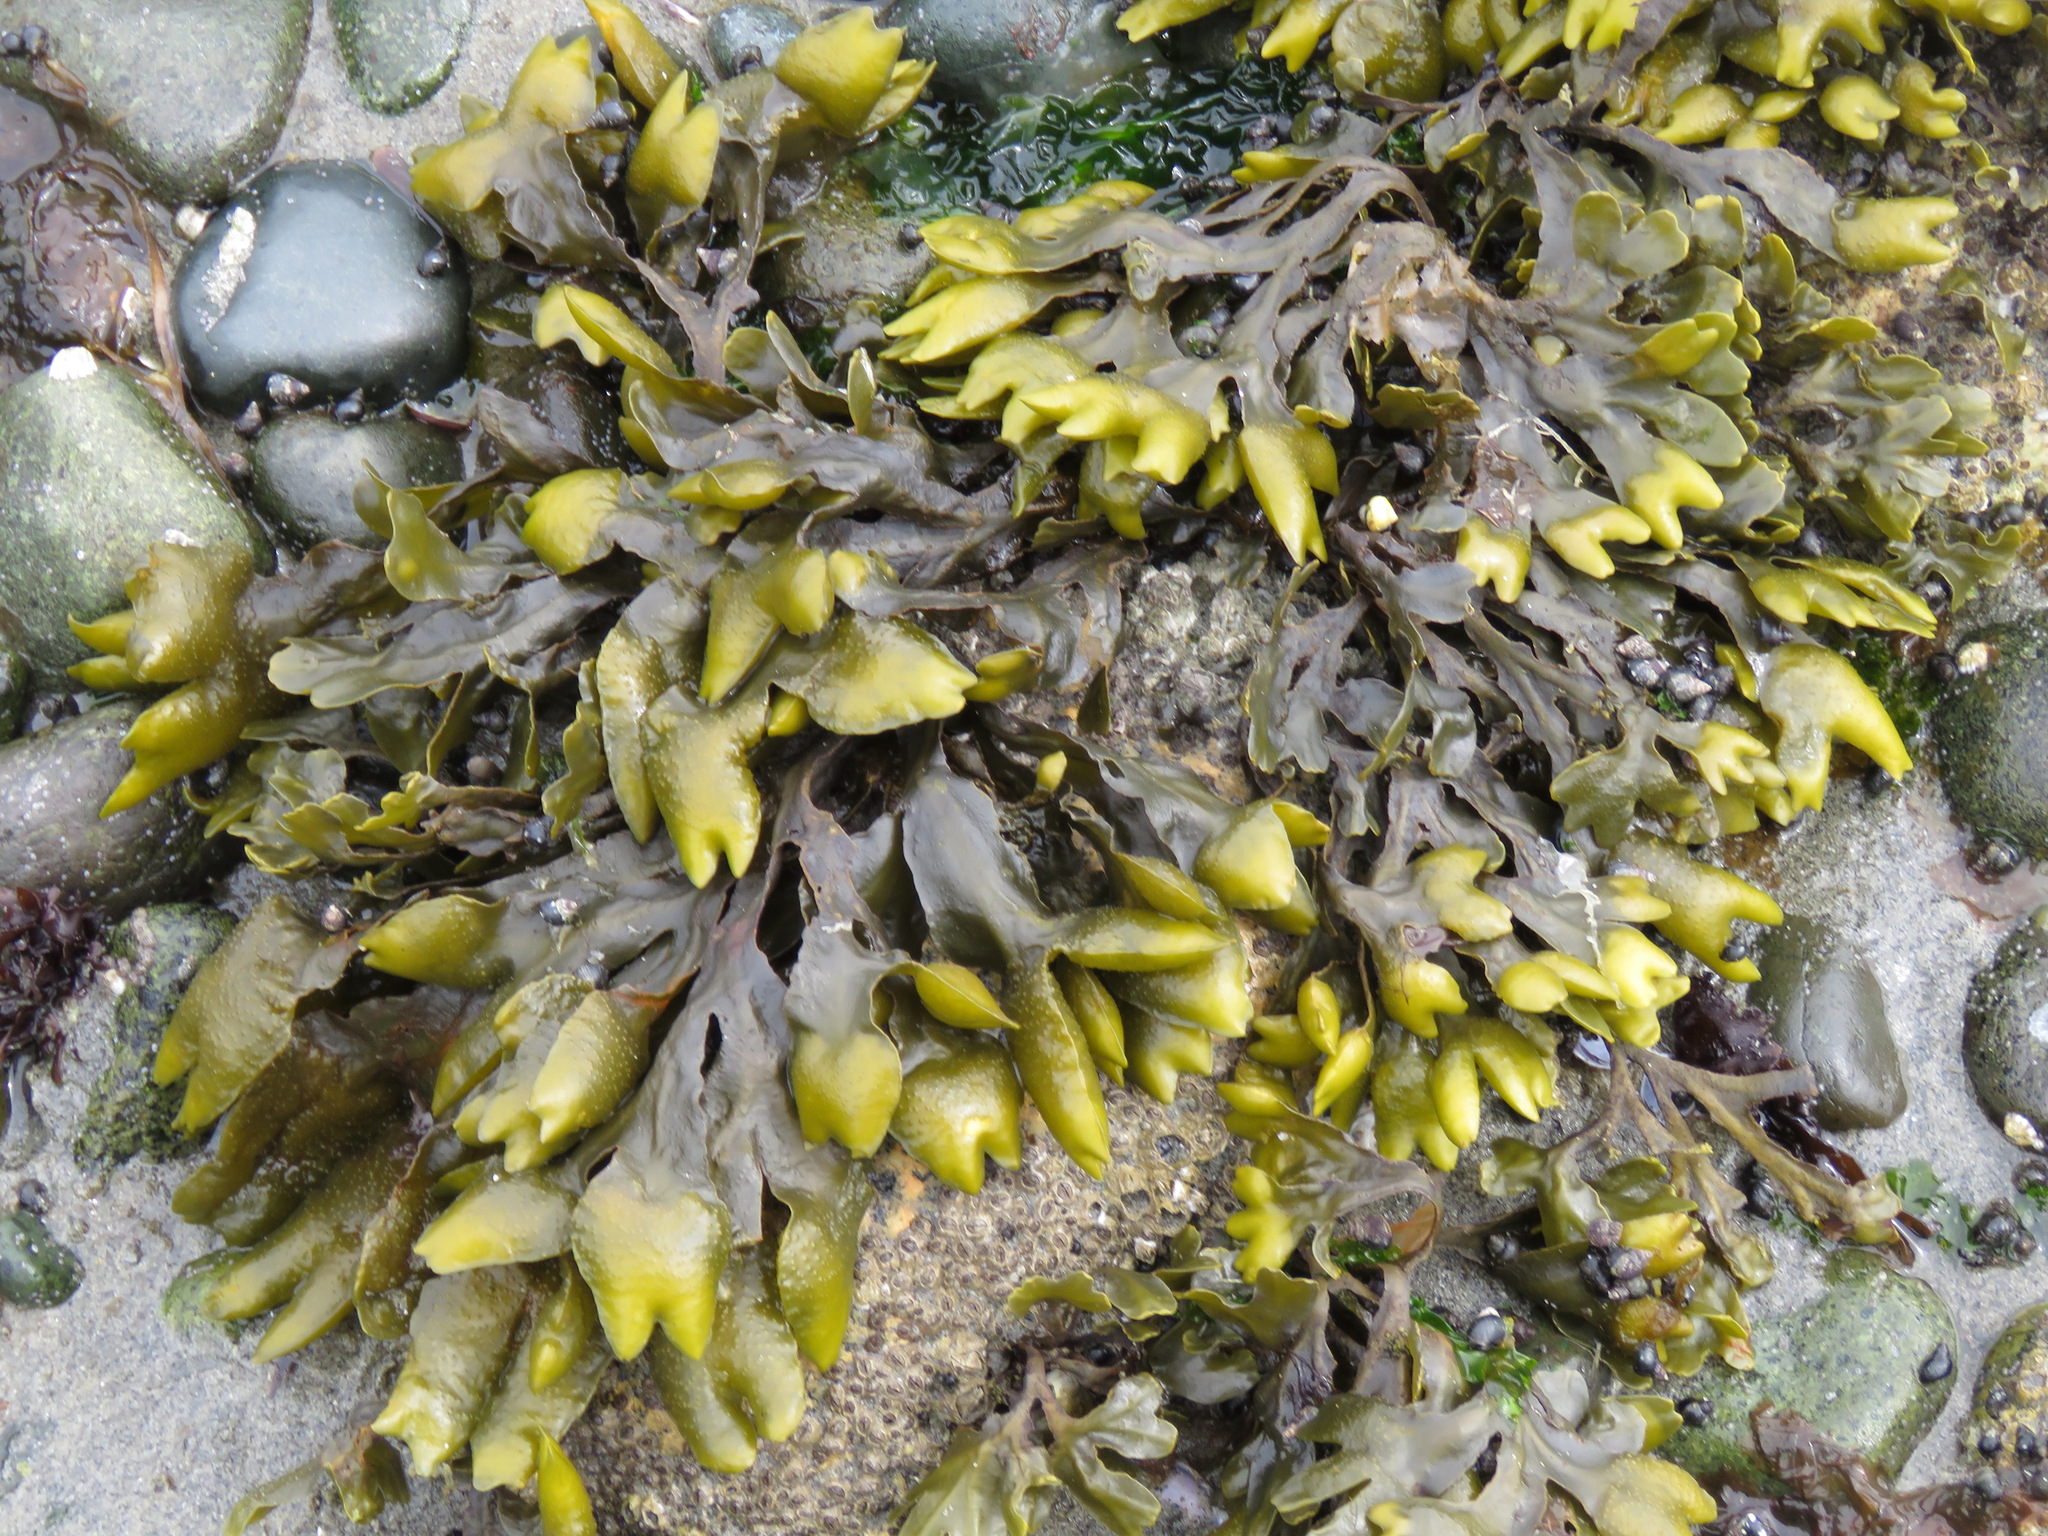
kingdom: Chromista
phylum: Ochrophyta
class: Phaeophyceae
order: Fucales
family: Fucaceae
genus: Fucus
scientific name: Fucus distichus
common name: Rockweed
